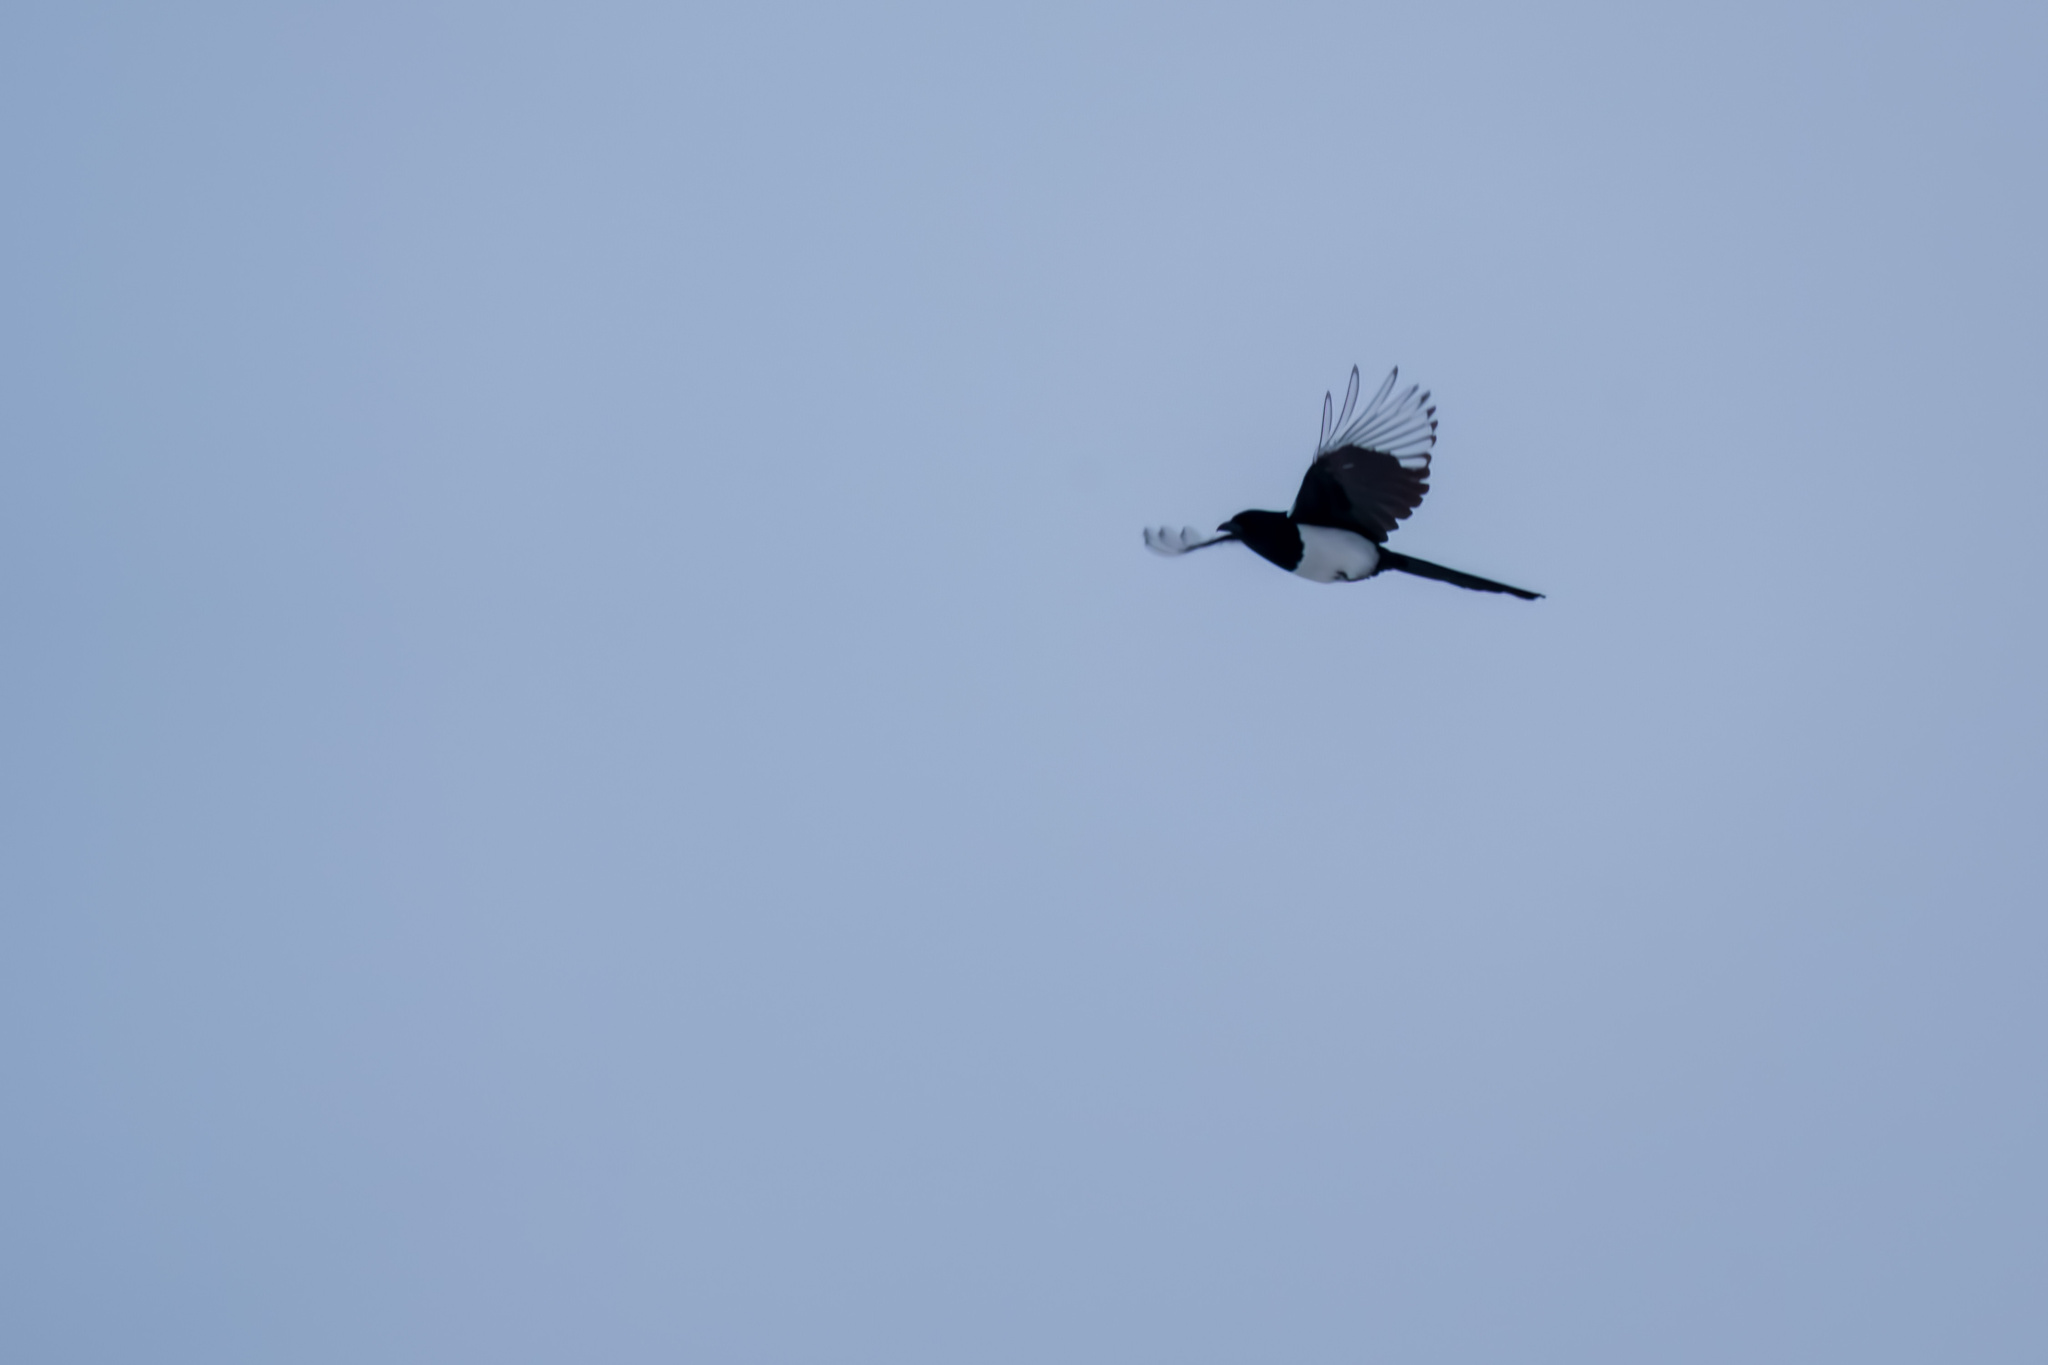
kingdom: Animalia
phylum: Chordata
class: Aves
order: Passeriformes
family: Corvidae
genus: Pica
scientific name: Pica pica
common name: Eurasian magpie
